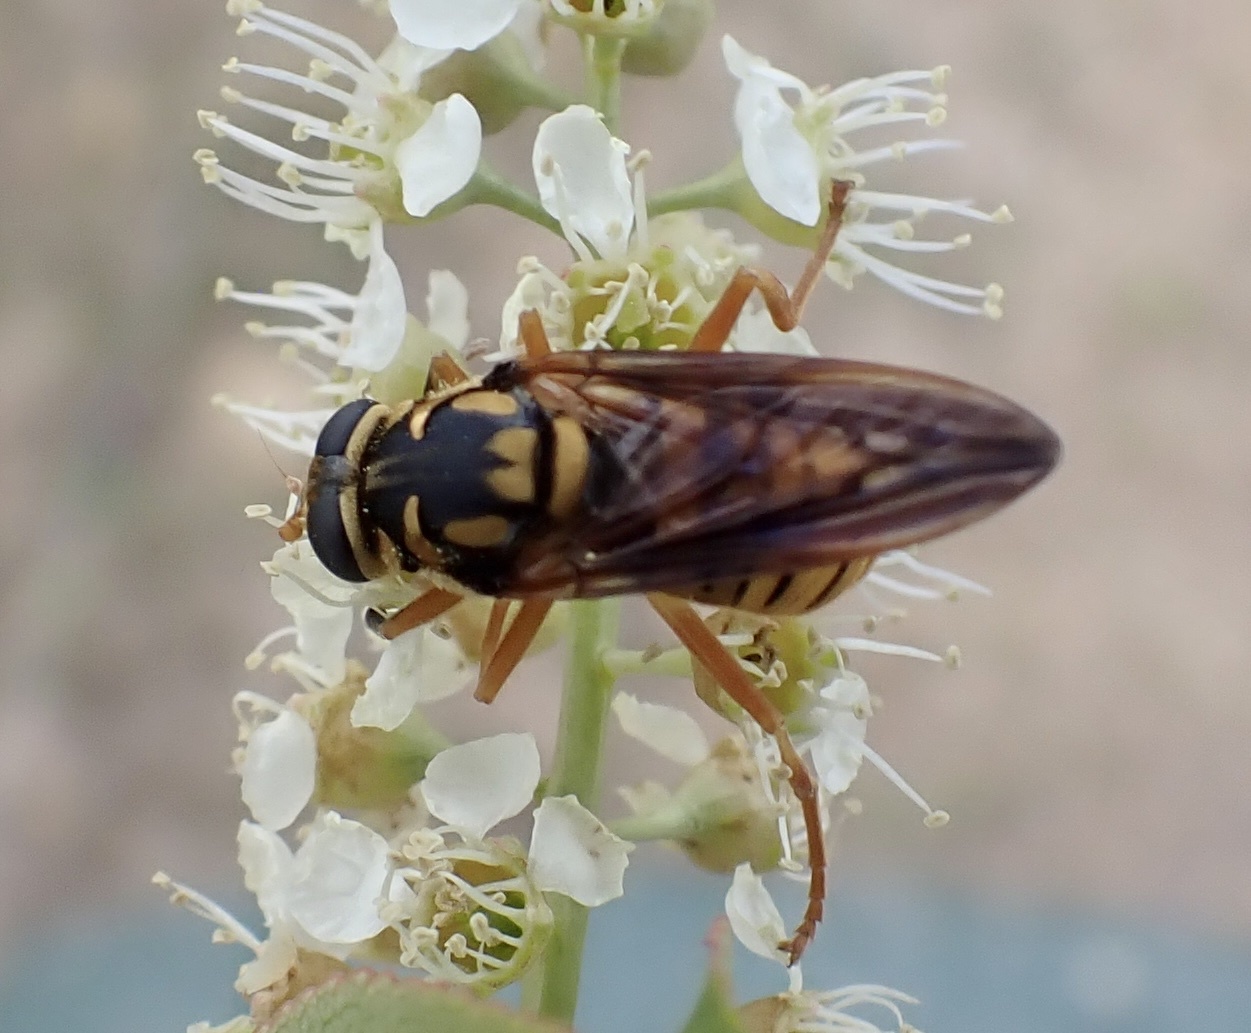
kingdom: Animalia
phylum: Arthropoda
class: Insecta
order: Diptera
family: Syrphidae
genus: Temnostoma
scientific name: Temnostoma daochum
